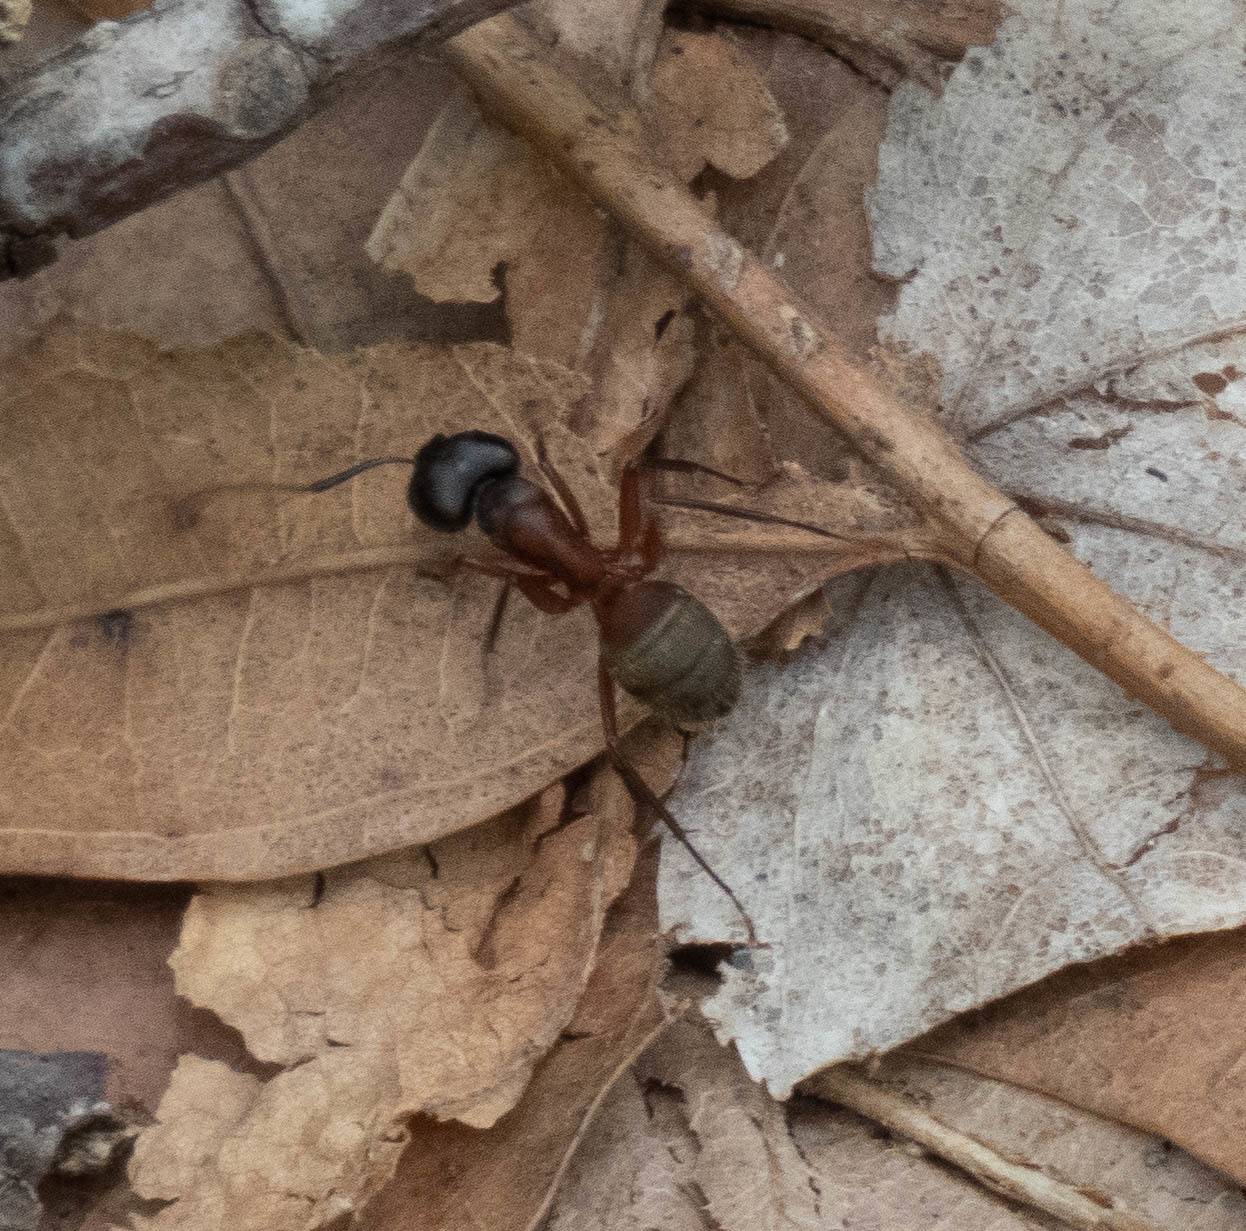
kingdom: Animalia
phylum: Arthropoda
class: Insecta
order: Hymenoptera
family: Formicidae
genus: Camponotus
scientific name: Camponotus chromaiodes
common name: Red carpenter ant
